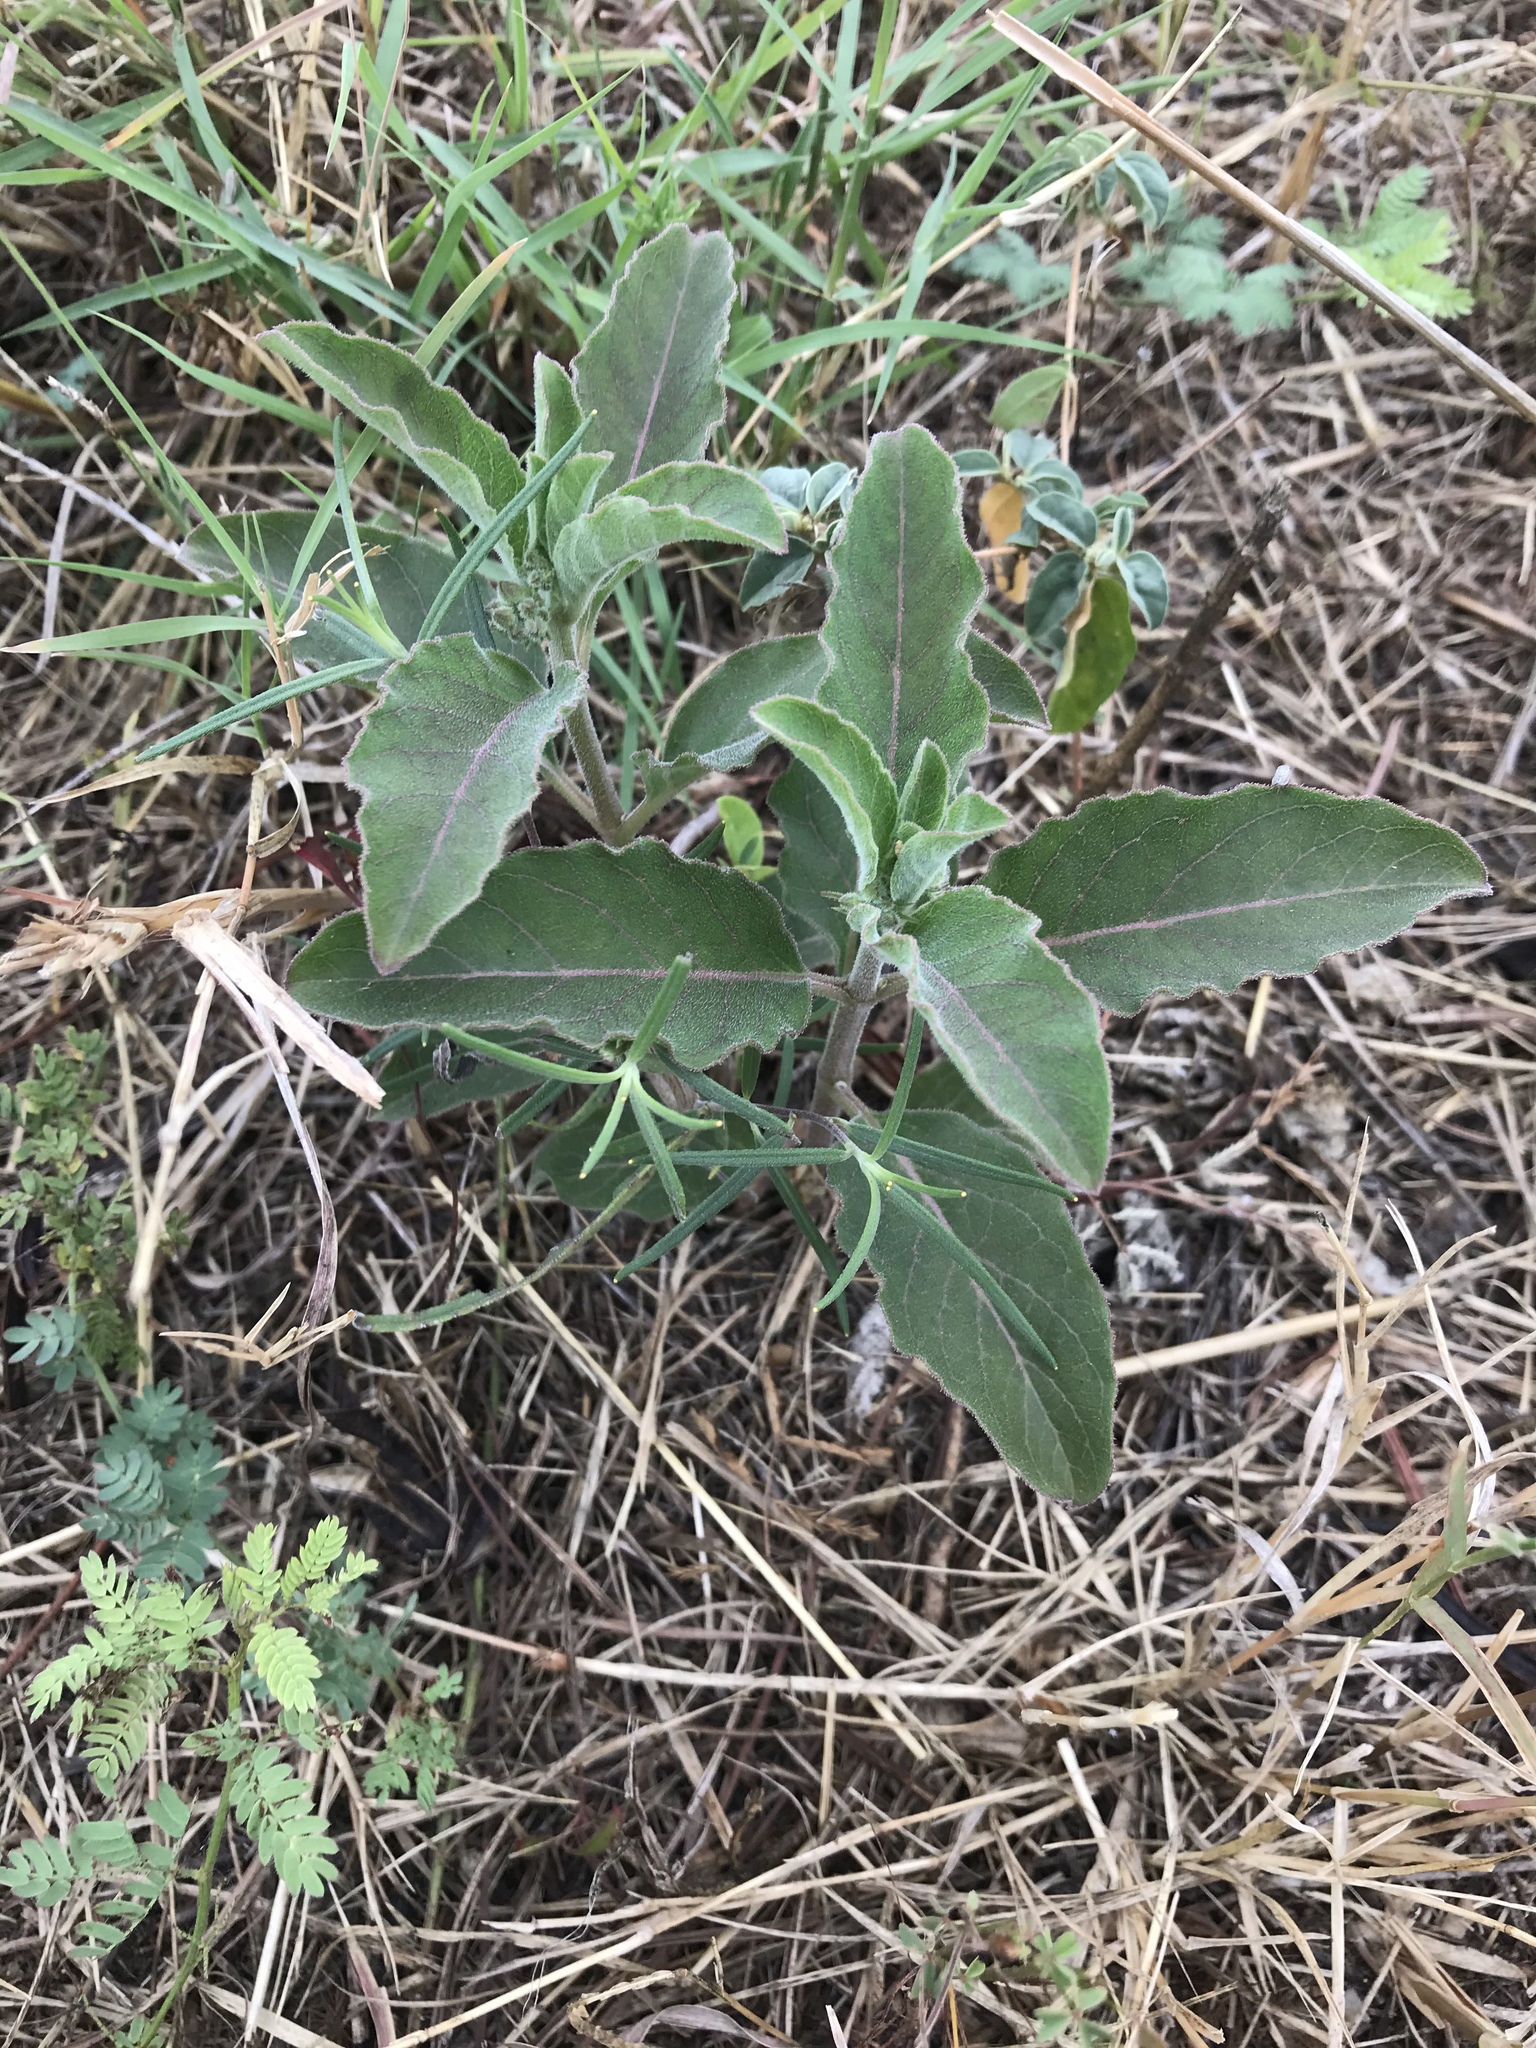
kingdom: Plantae
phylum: Tracheophyta
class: Magnoliopsida
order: Gentianales
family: Apocynaceae
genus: Asclepias
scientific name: Asclepias oenotheroides
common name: Zizotes milkweed
